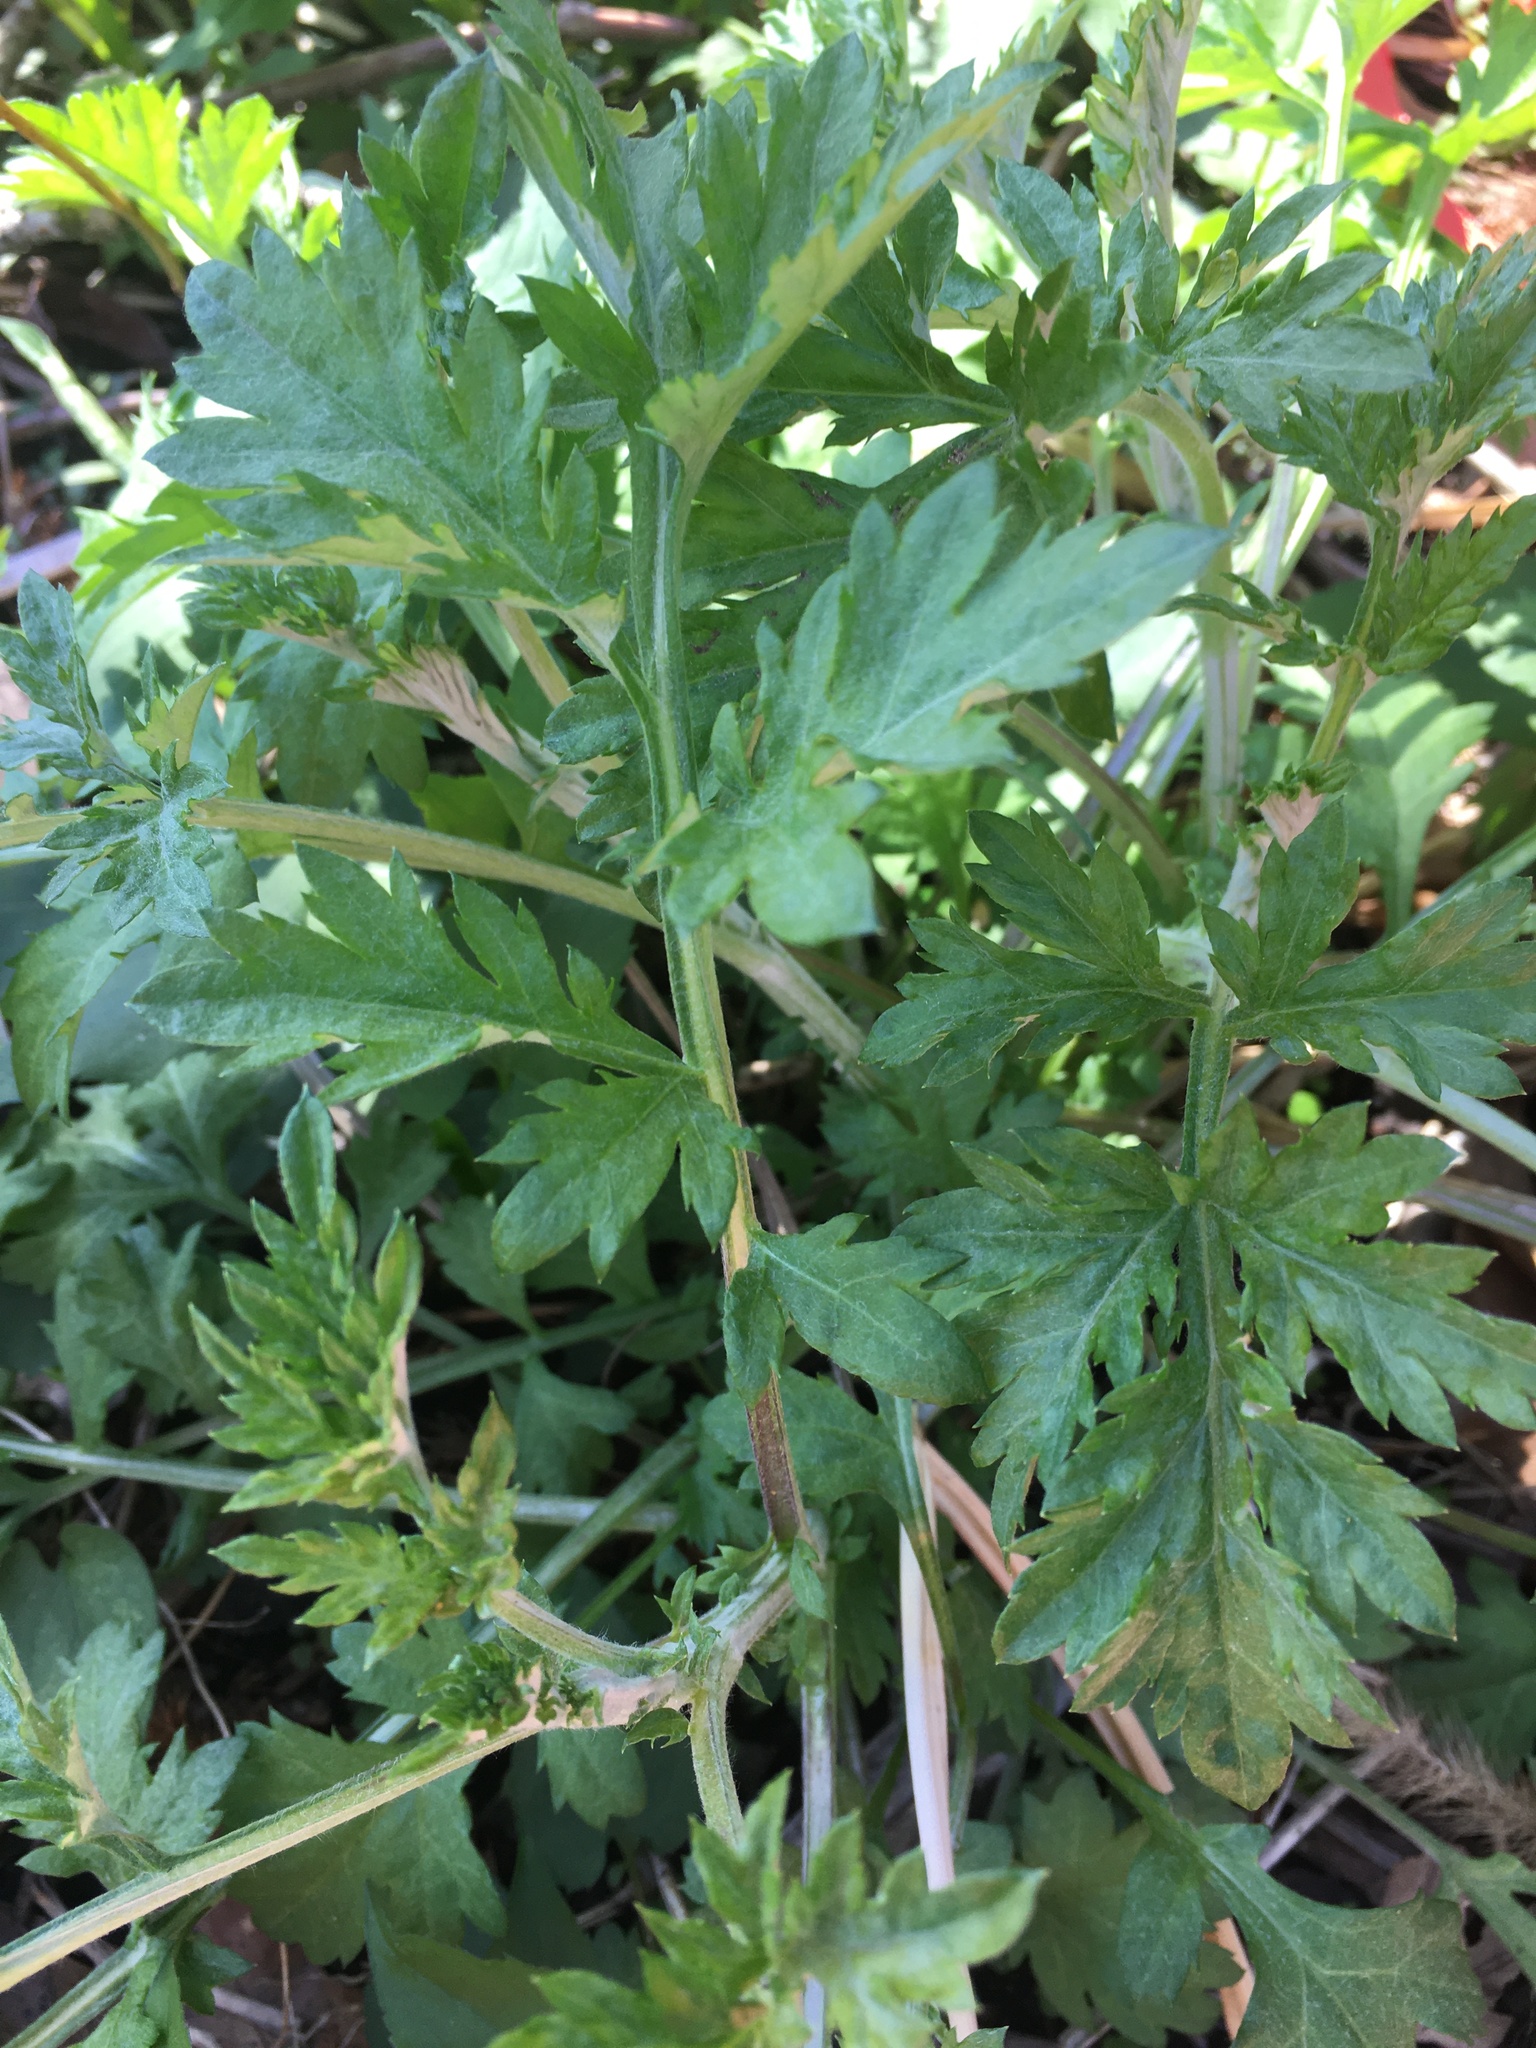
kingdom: Plantae
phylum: Tracheophyta
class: Magnoliopsida
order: Asterales
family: Asteraceae
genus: Artemisia
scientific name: Artemisia vulgaris
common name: Mugwort
